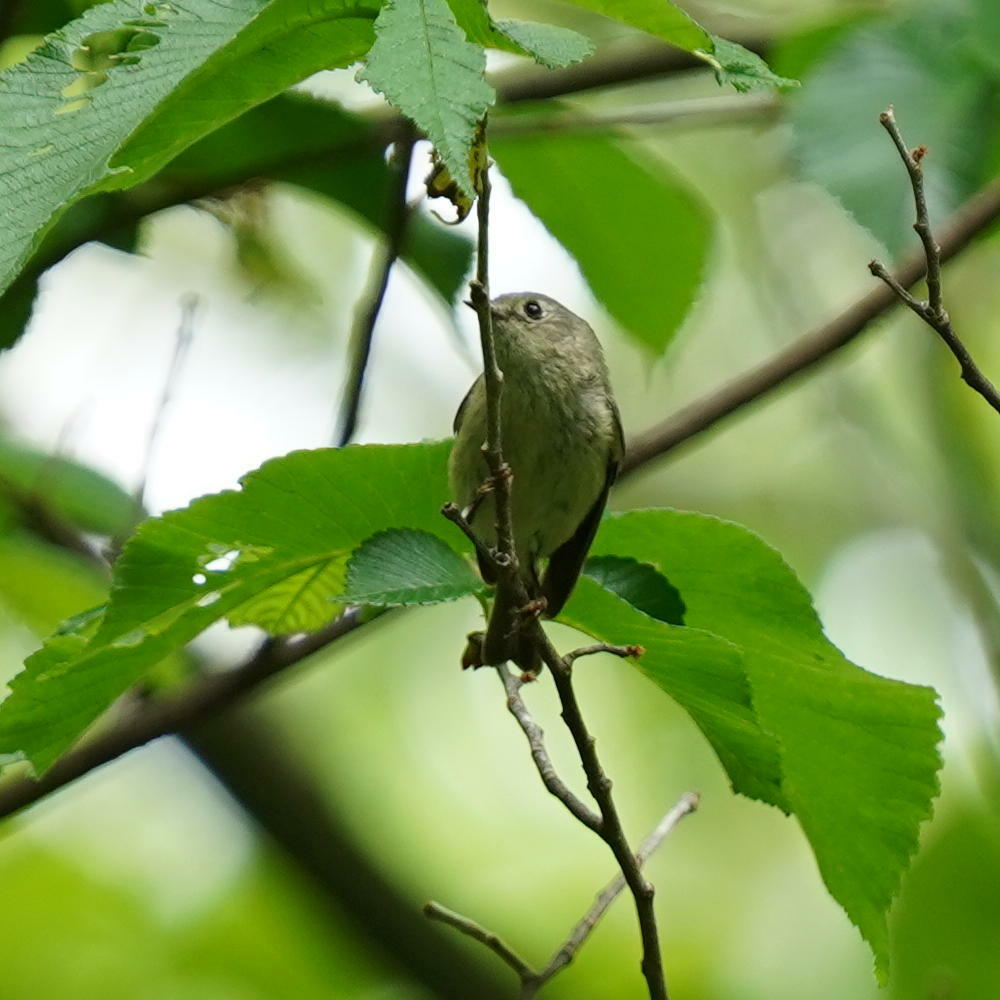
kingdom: Animalia
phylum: Chordata
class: Aves
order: Passeriformes
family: Regulidae
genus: Regulus
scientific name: Regulus calendula
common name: Ruby-crowned kinglet
